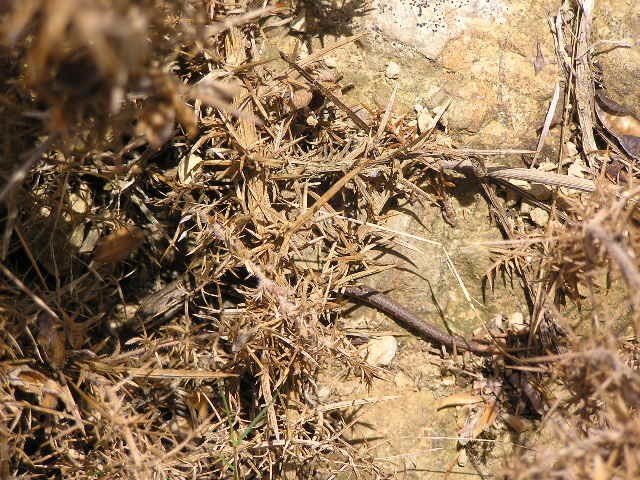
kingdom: Animalia
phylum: Chordata
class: Squamata
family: Scincidae
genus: Oligosoma
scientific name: Oligosoma polychroma
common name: Common new zealand skink
